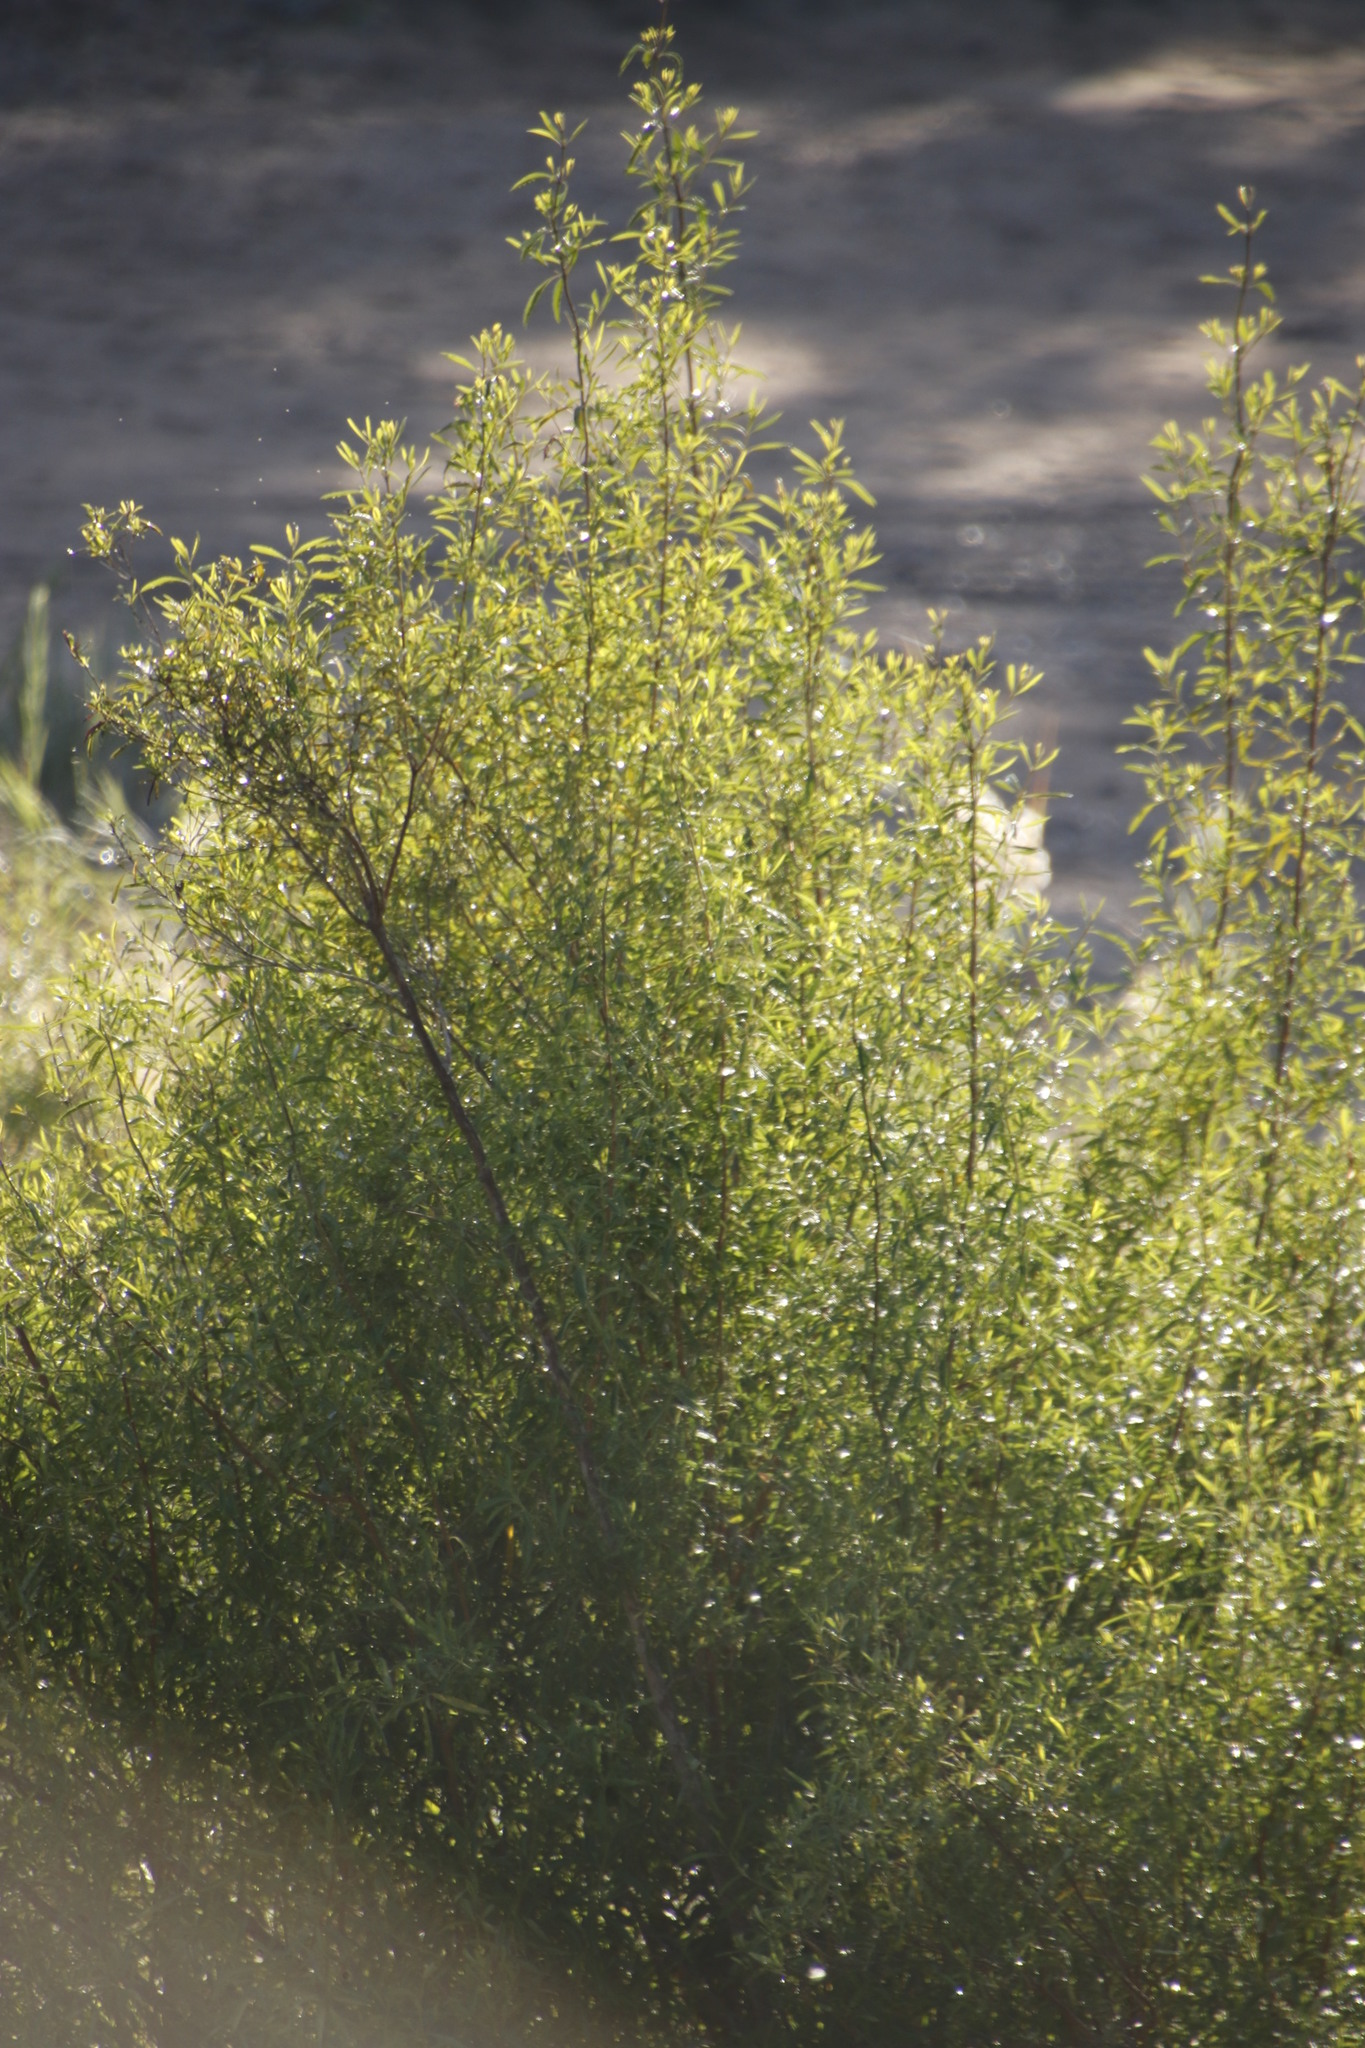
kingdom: Plantae
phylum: Tracheophyta
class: Magnoliopsida
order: Lamiales
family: Stilbaceae
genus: Nuxia
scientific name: Nuxia oppositifolia
